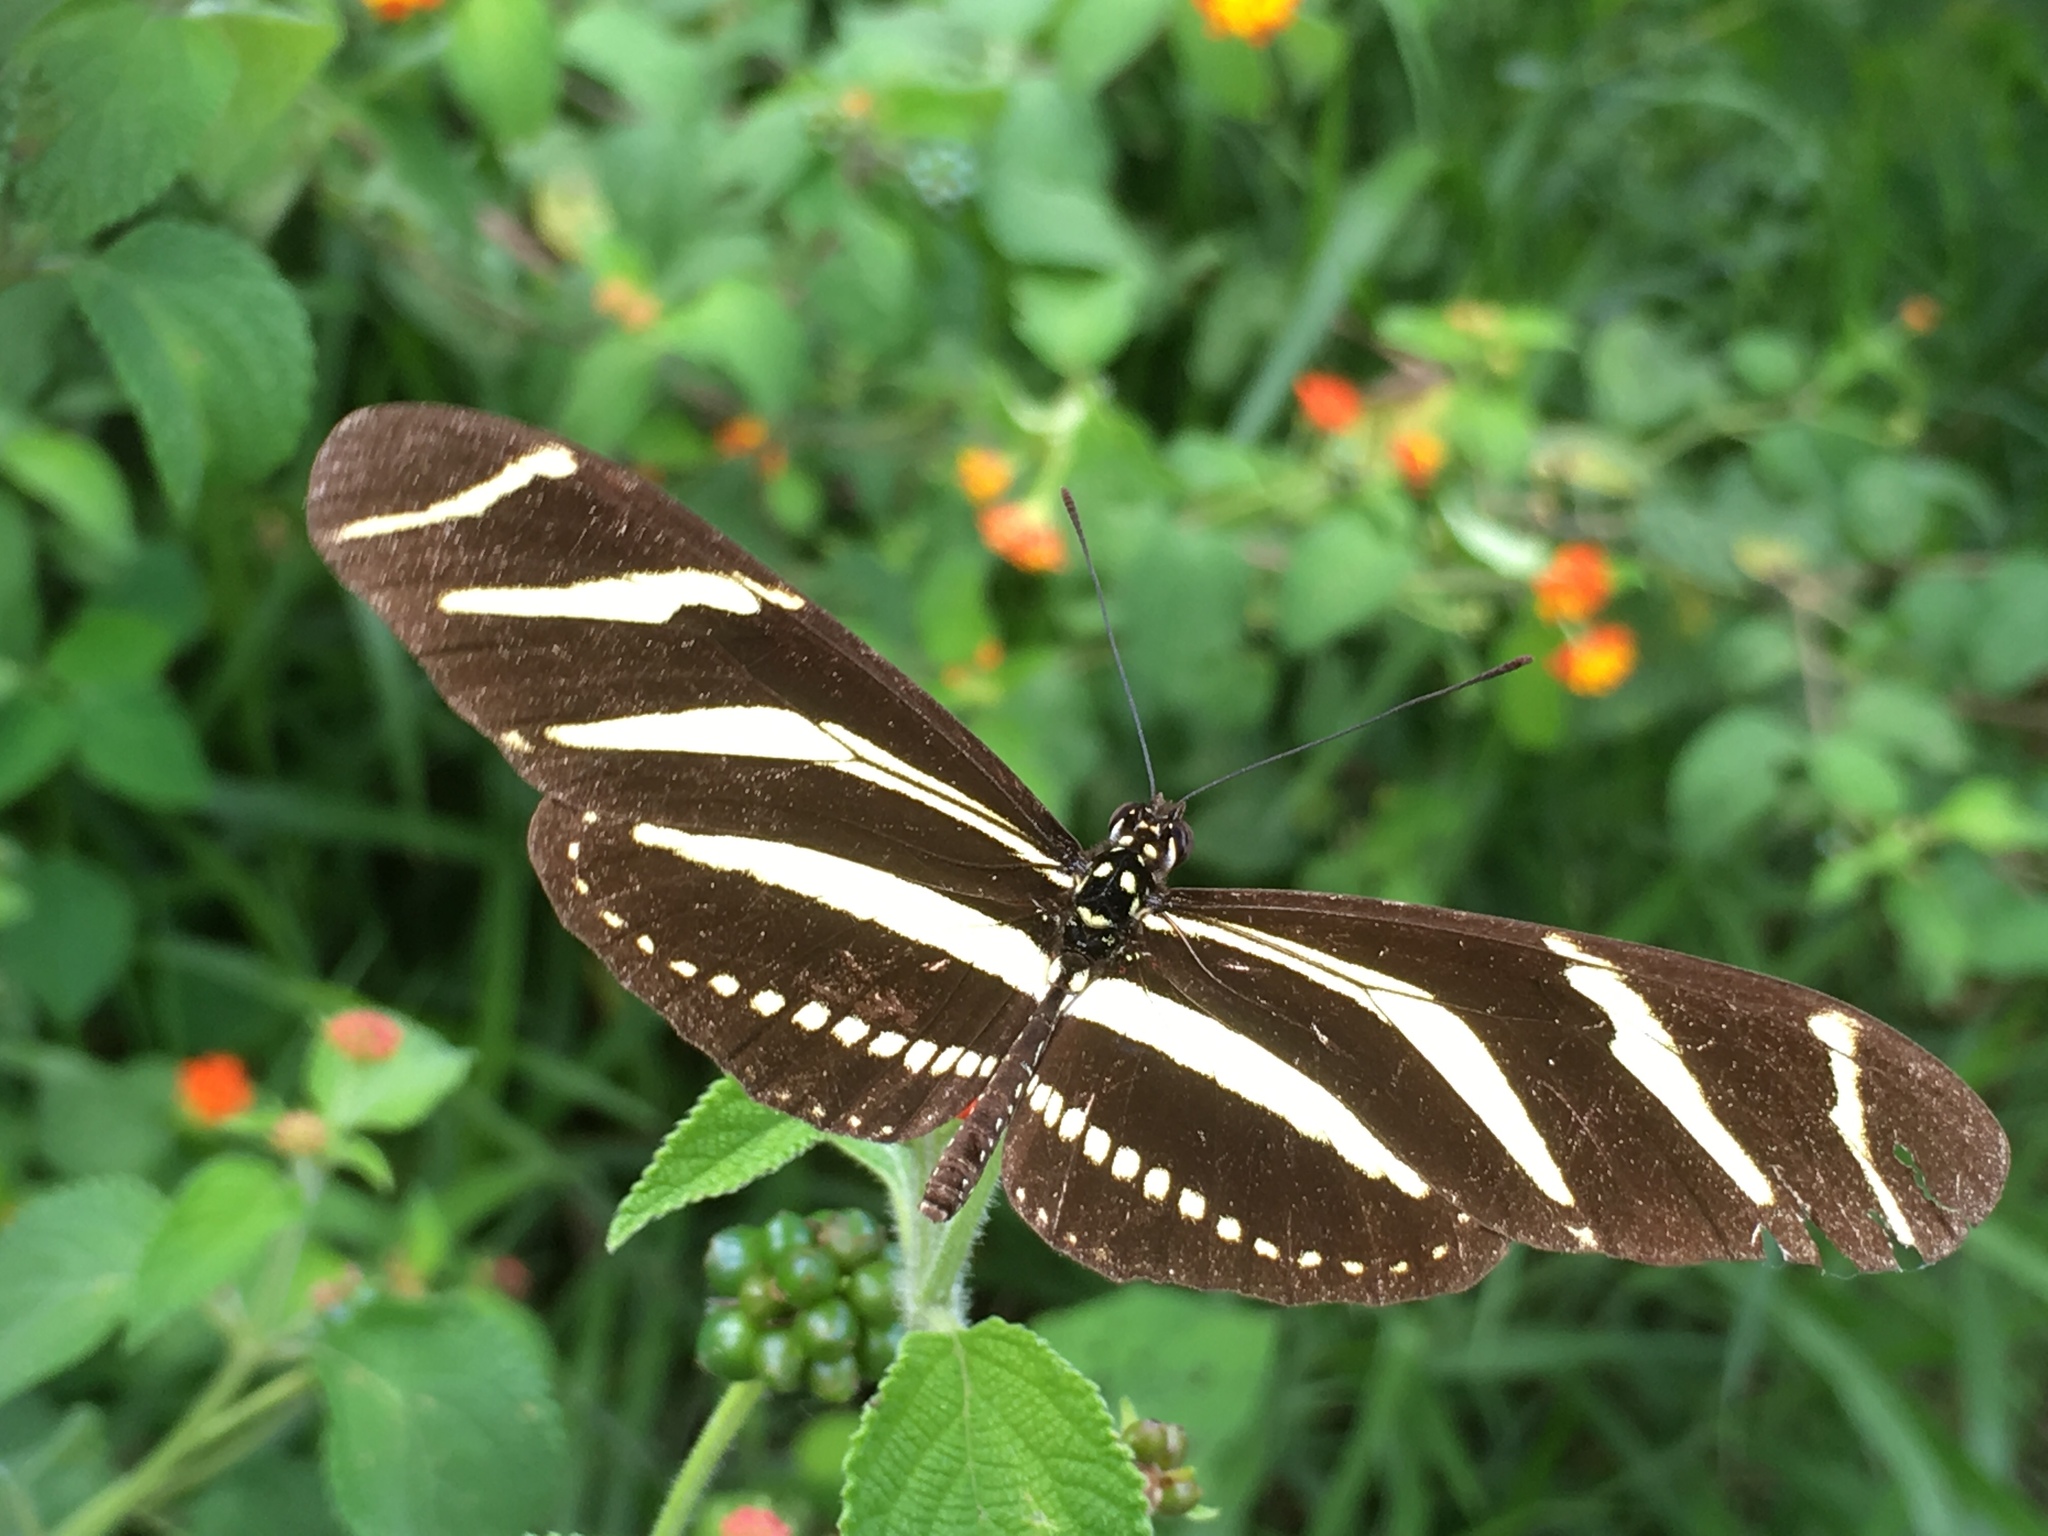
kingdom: Animalia
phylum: Arthropoda
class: Insecta
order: Lepidoptera
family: Nymphalidae
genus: Heliconius
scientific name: Heliconius charithonia
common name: Zebra long wing
